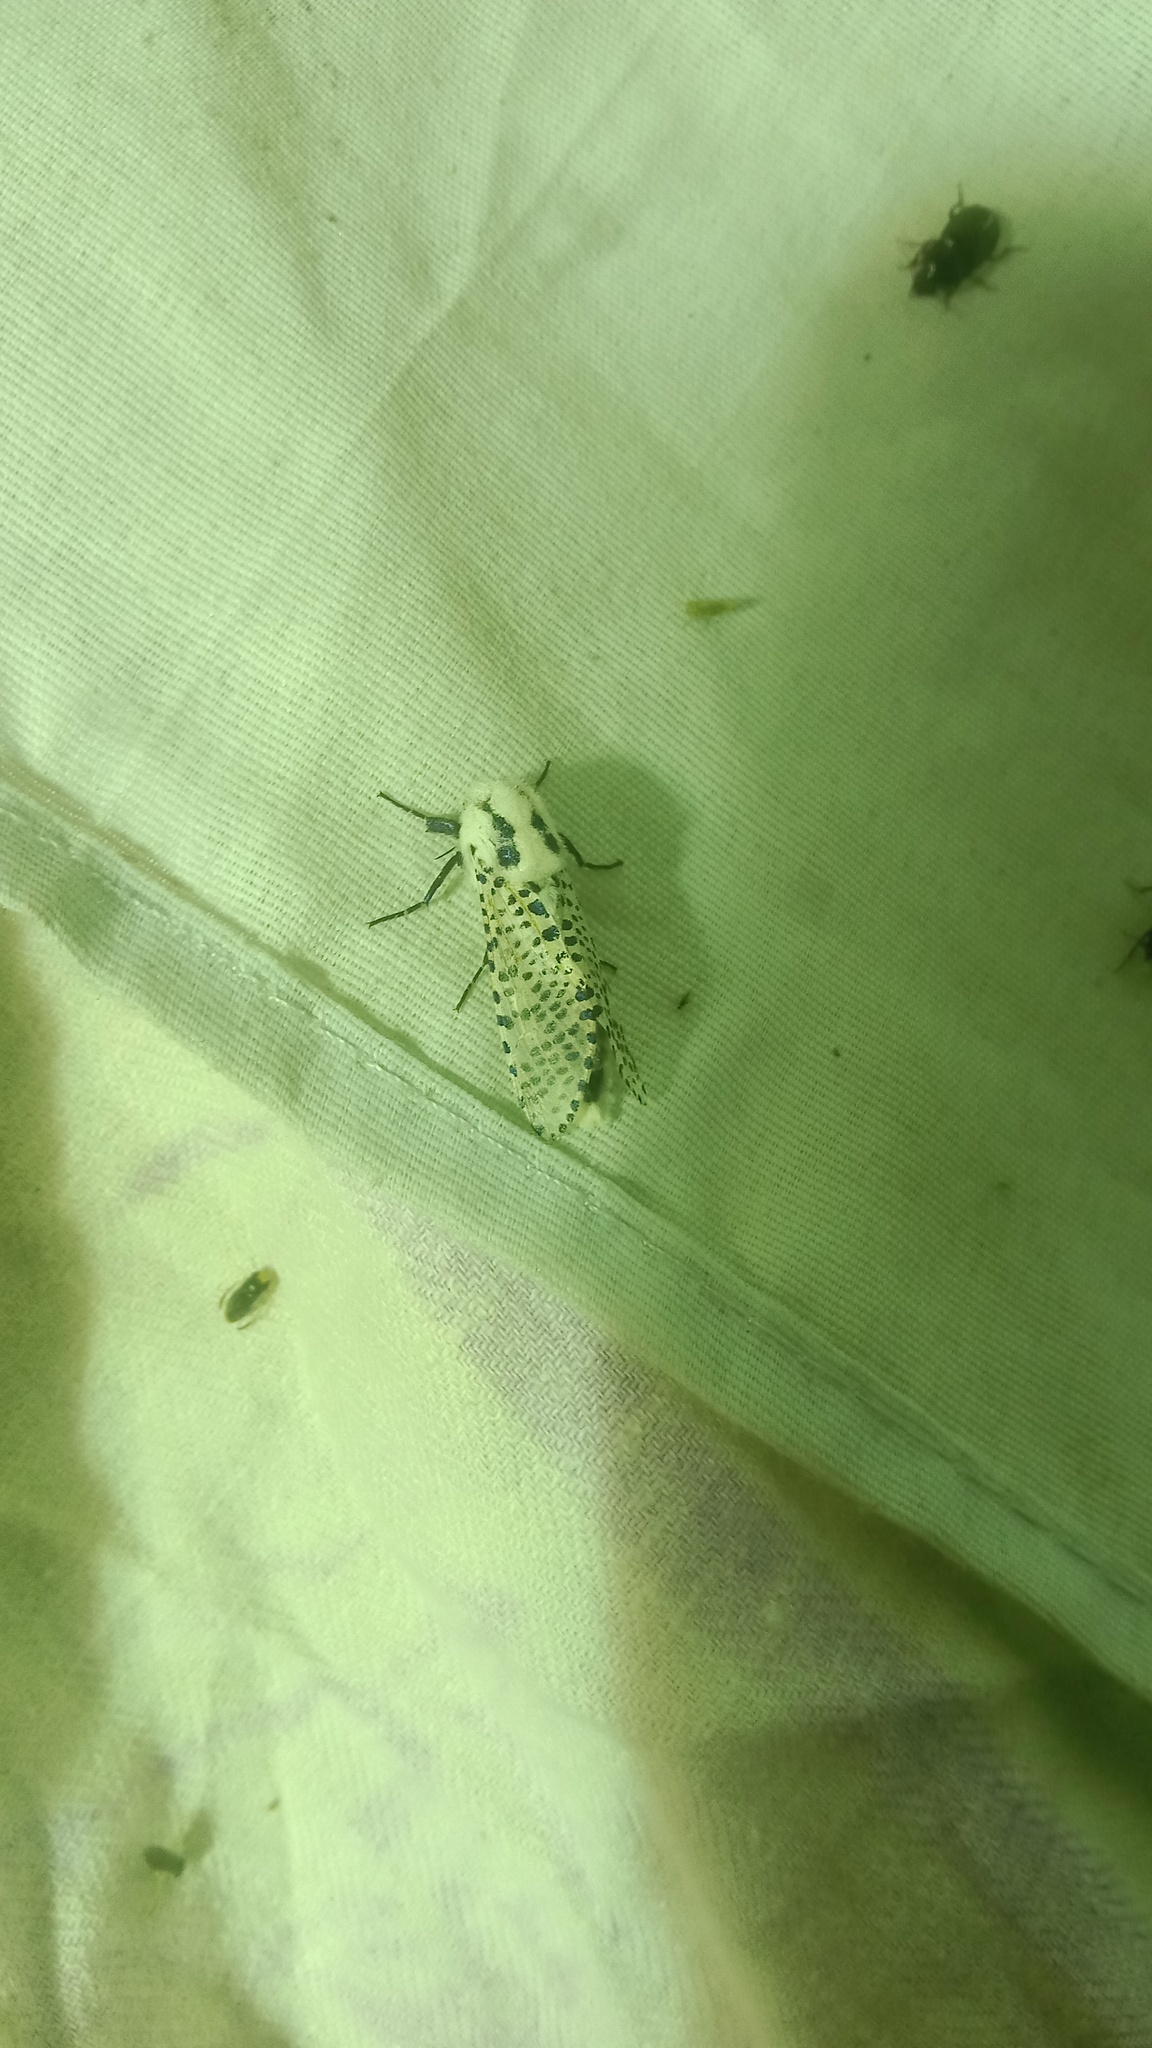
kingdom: Animalia
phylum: Arthropoda
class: Insecta
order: Lepidoptera
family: Cossidae
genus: Zeuzera
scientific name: Zeuzera pyrina
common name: Leopard moth
